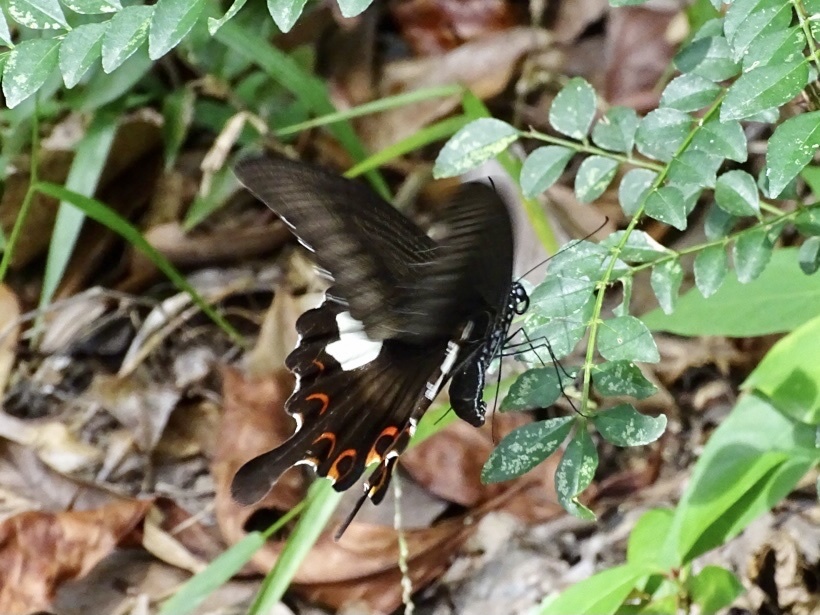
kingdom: Animalia
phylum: Arthropoda
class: Insecta
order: Lepidoptera
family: Papilionidae
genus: Papilio
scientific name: Papilio helenus
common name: Red helen
